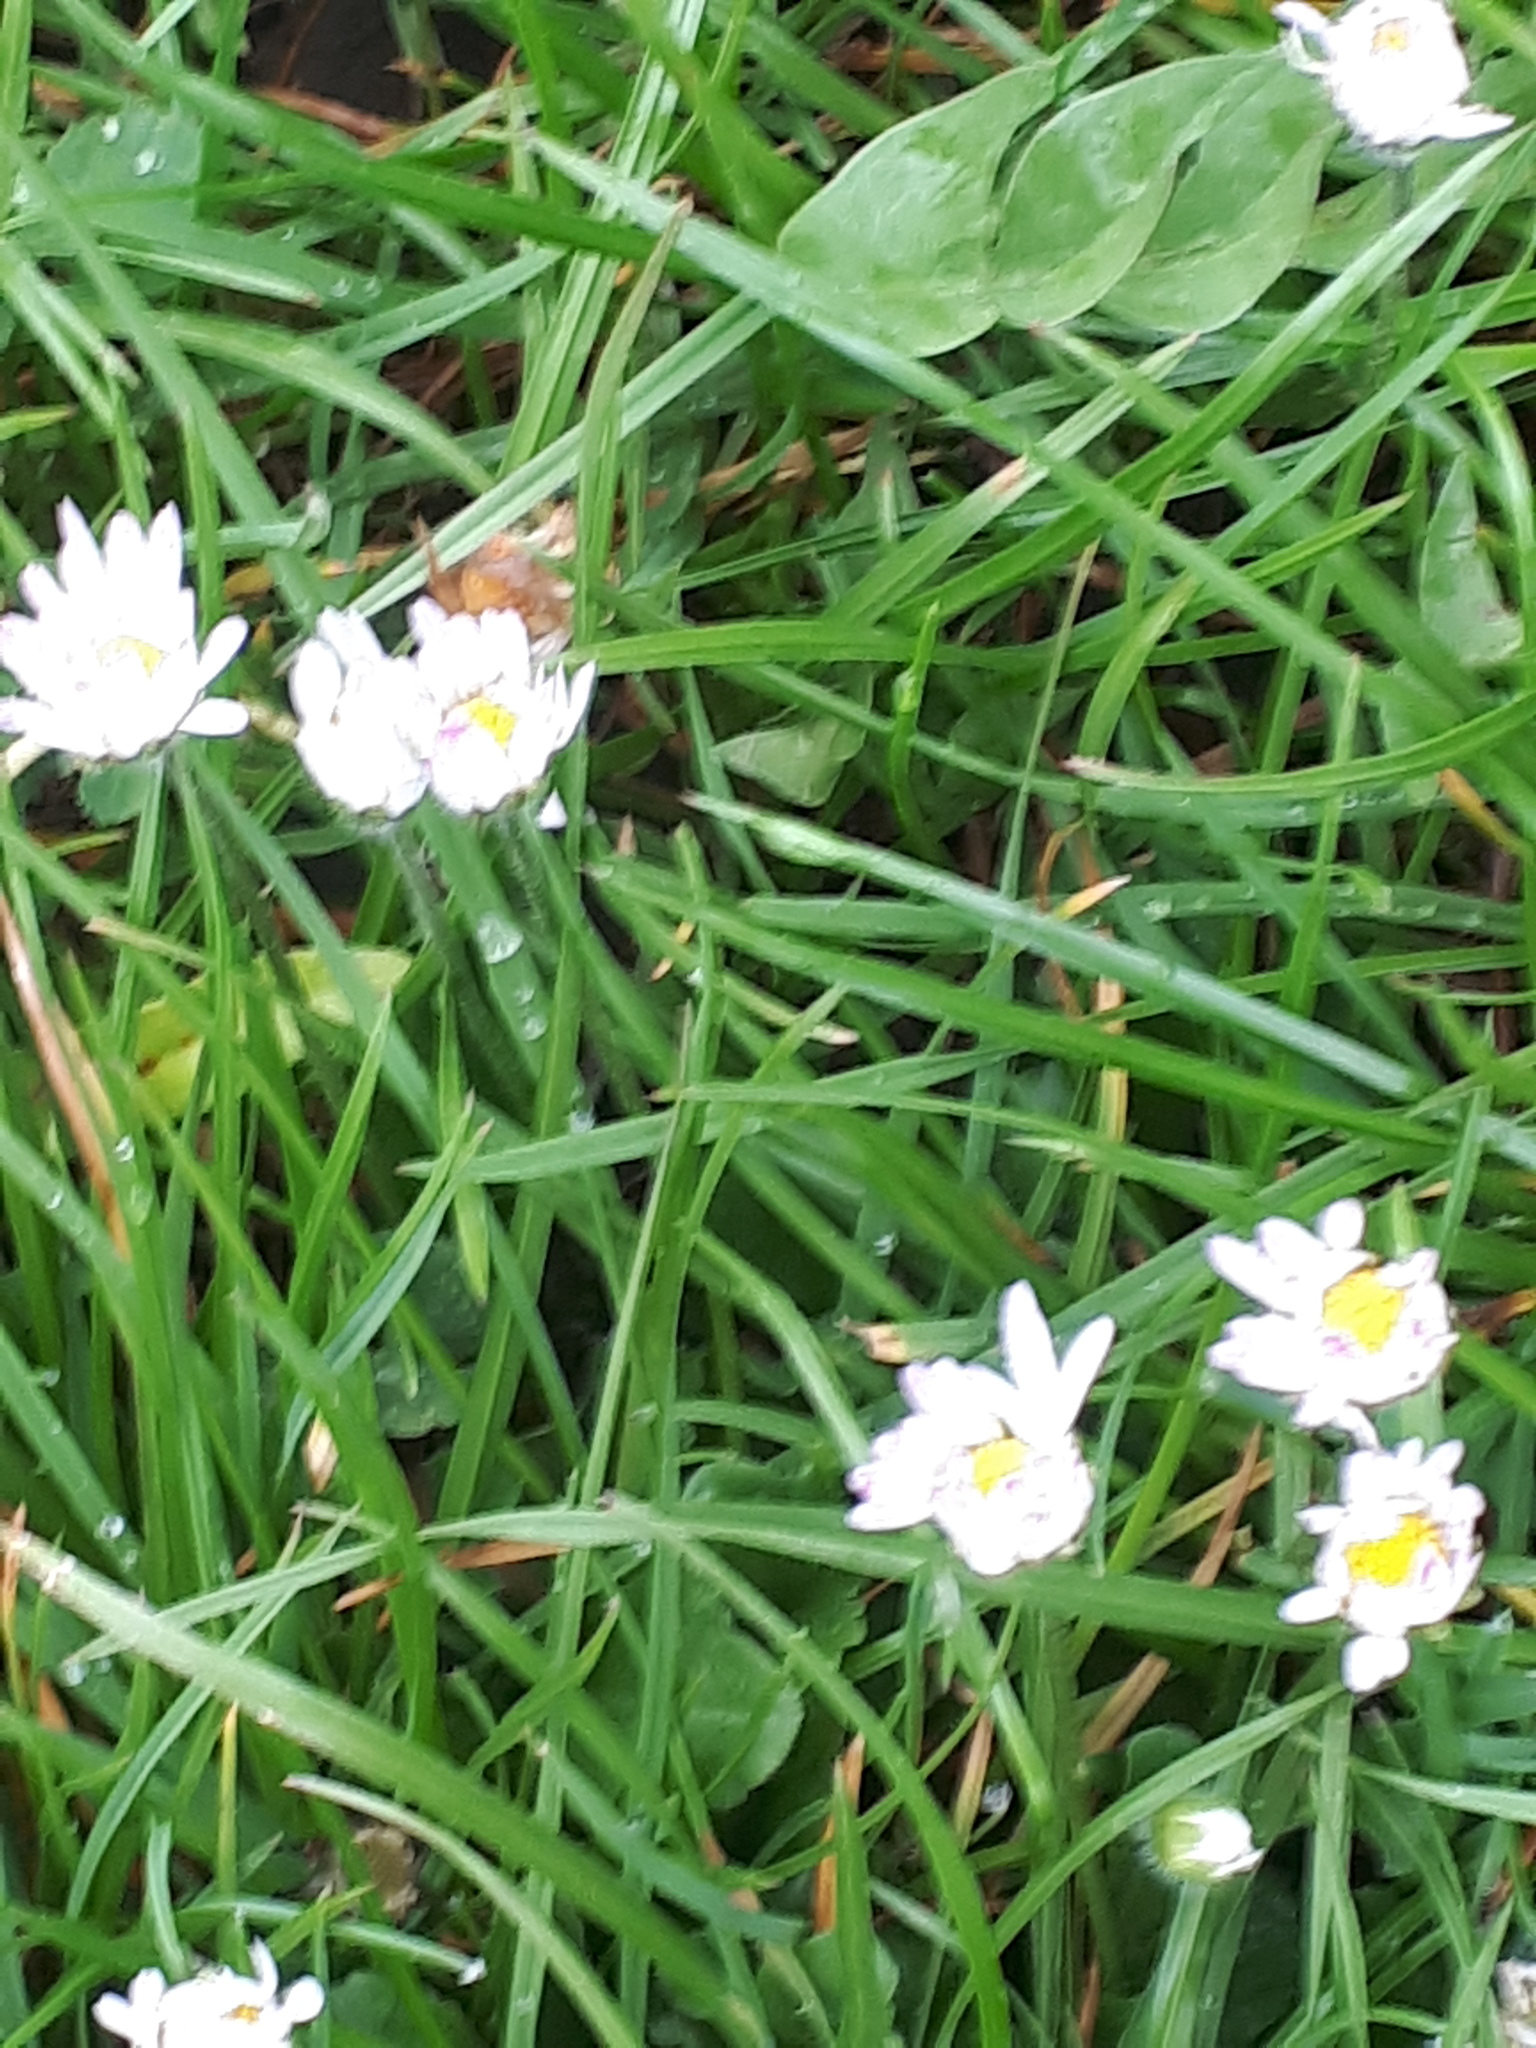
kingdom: Plantae
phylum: Tracheophyta
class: Magnoliopsida
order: Asterales
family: Asteraceae
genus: Bellis
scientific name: Bellis perennis
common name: Lawndaisy
